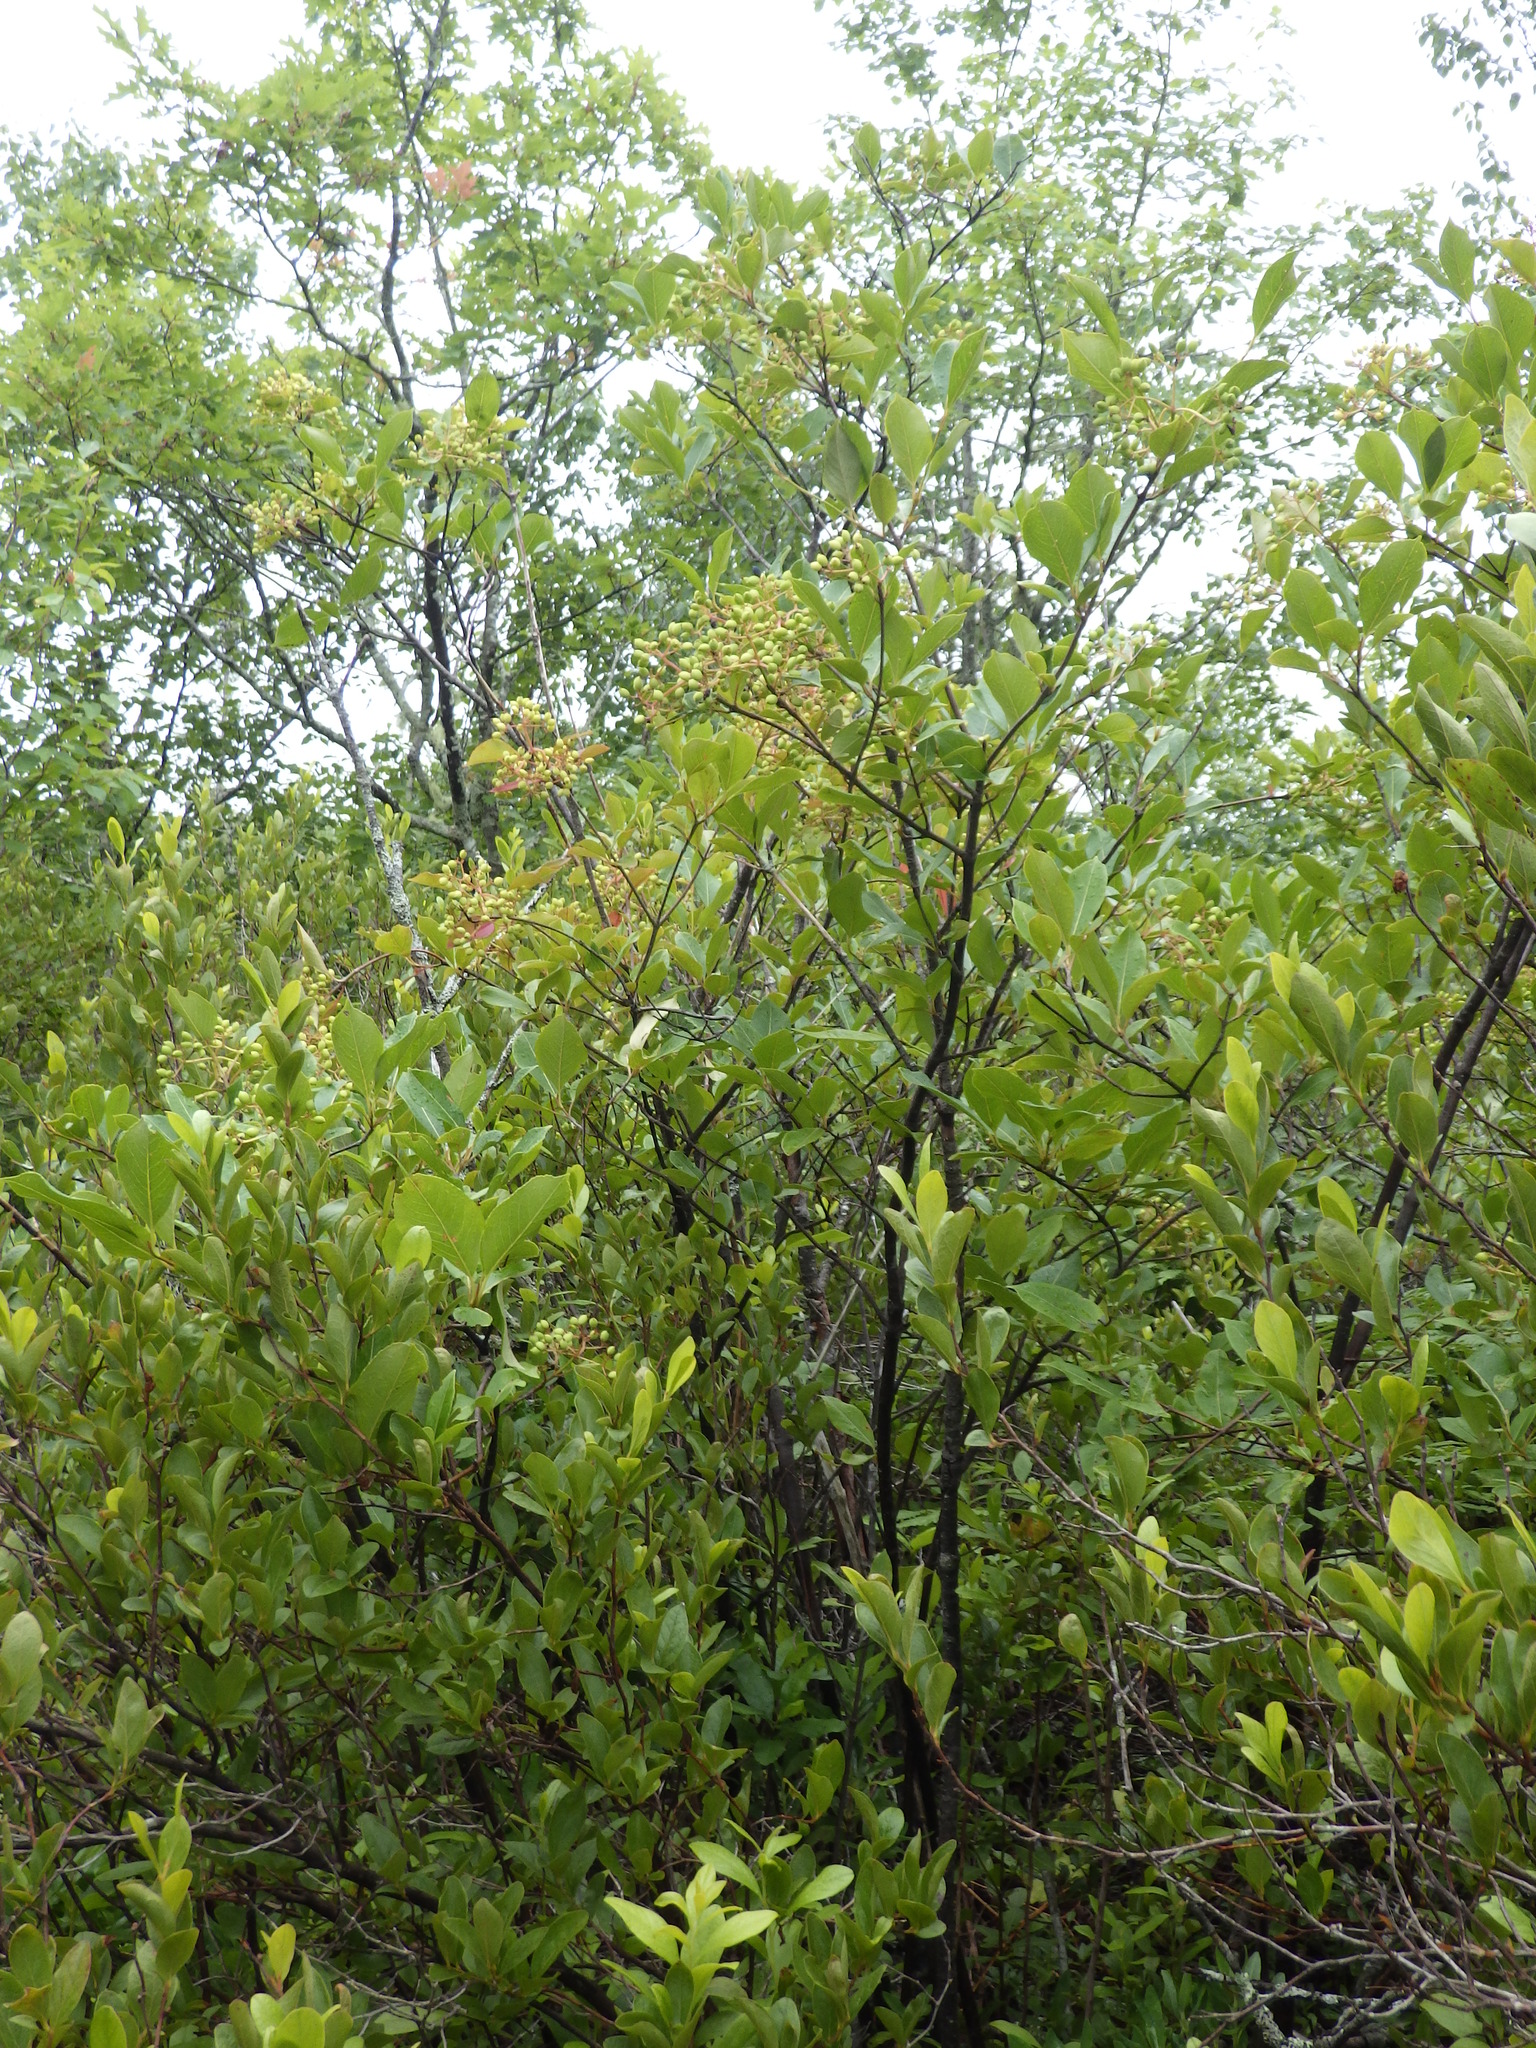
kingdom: Plantae
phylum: Tracheophyta
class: Magnoliopsida
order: Dipsacales
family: Viburnaceae
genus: Viburnum
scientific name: Viburnum cassinoides
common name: Swamp haw
